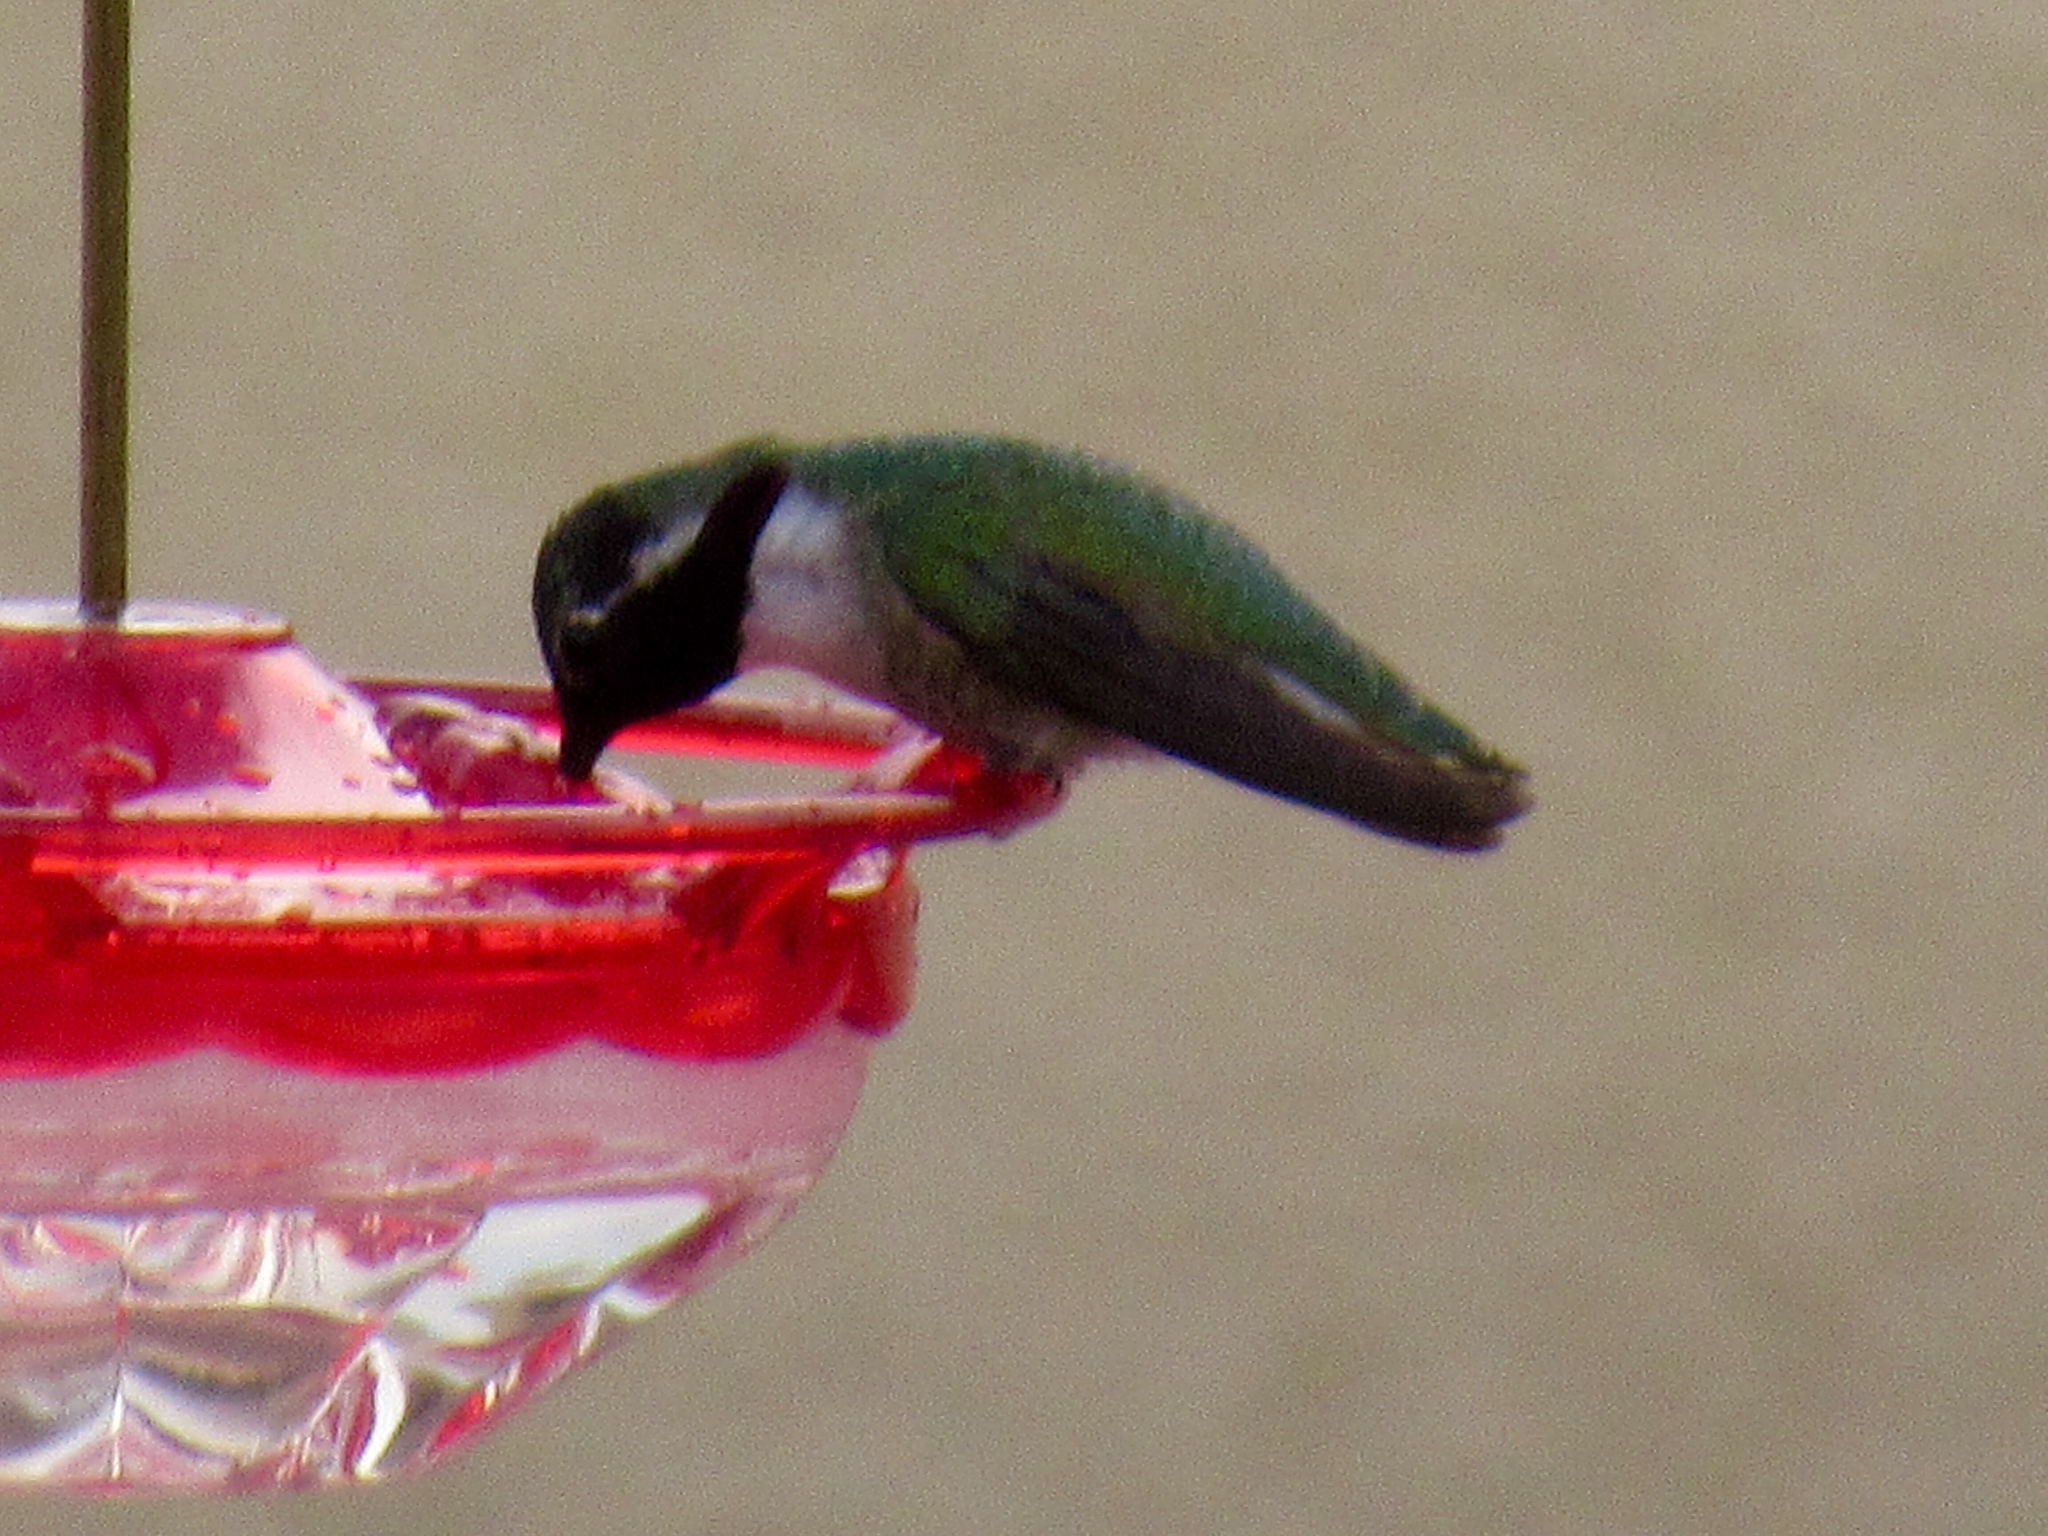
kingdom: Animalia
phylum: Chordata
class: Aves
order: Apodiformes
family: Trochilidae
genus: Calypte
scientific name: Calypte costae
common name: Costa's hummingbird
